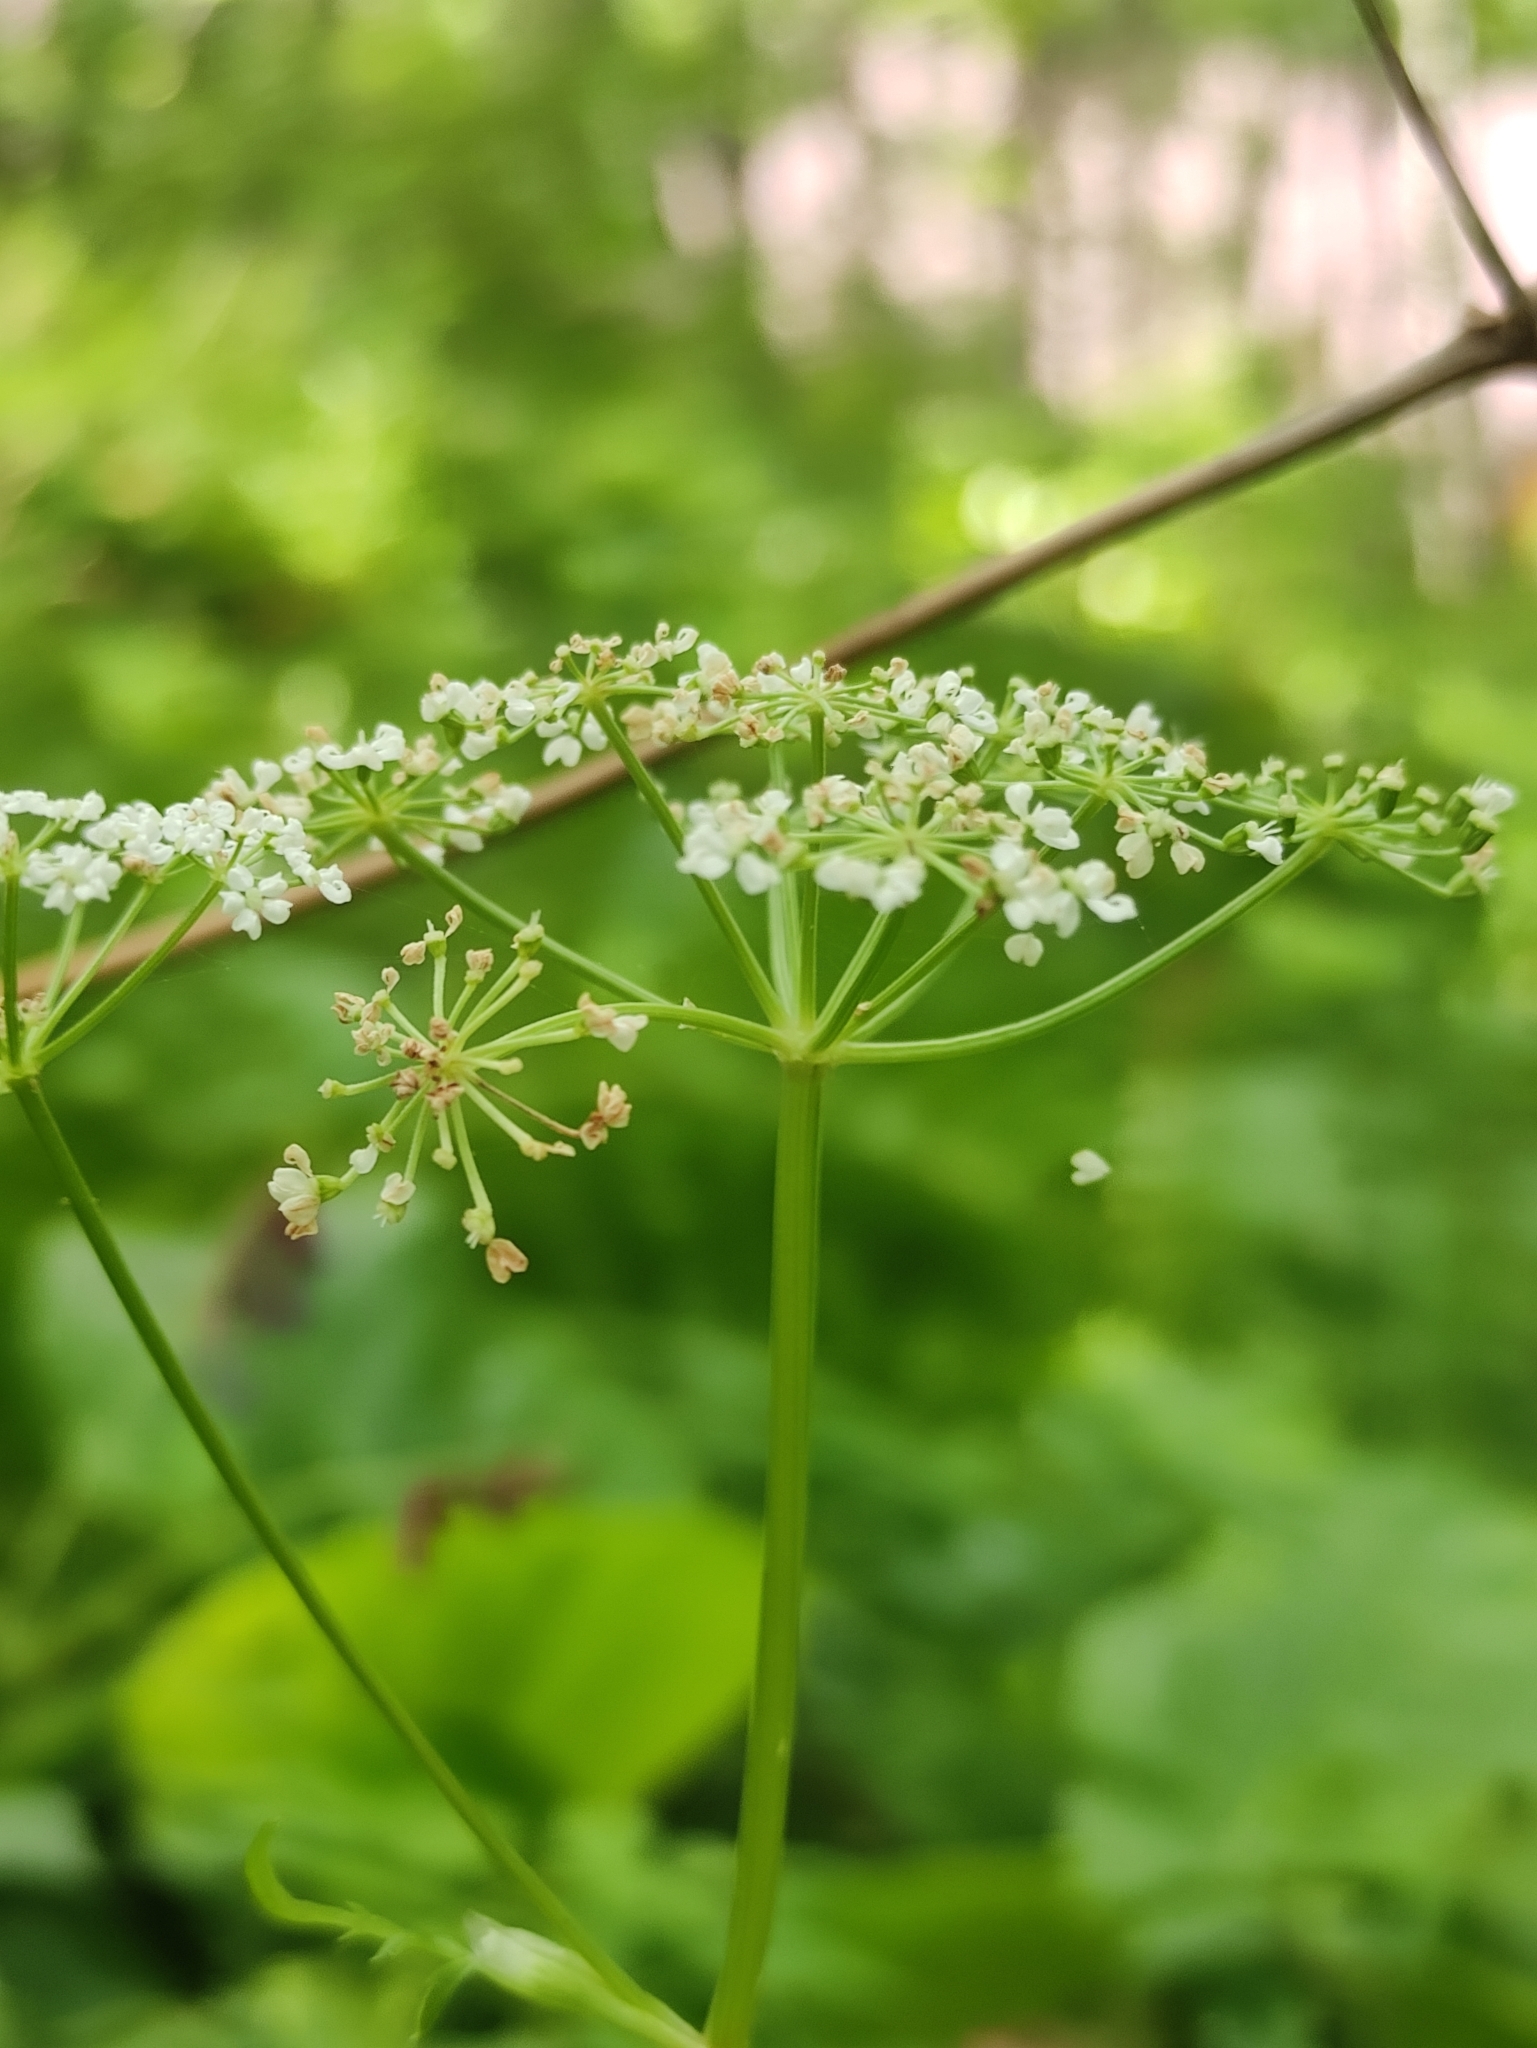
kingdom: Plantae
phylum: Tracheophyta
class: Magnoliopsida
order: Apiales
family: Apiaceae
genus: Aegopodium
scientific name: Aegopodium alpestre
